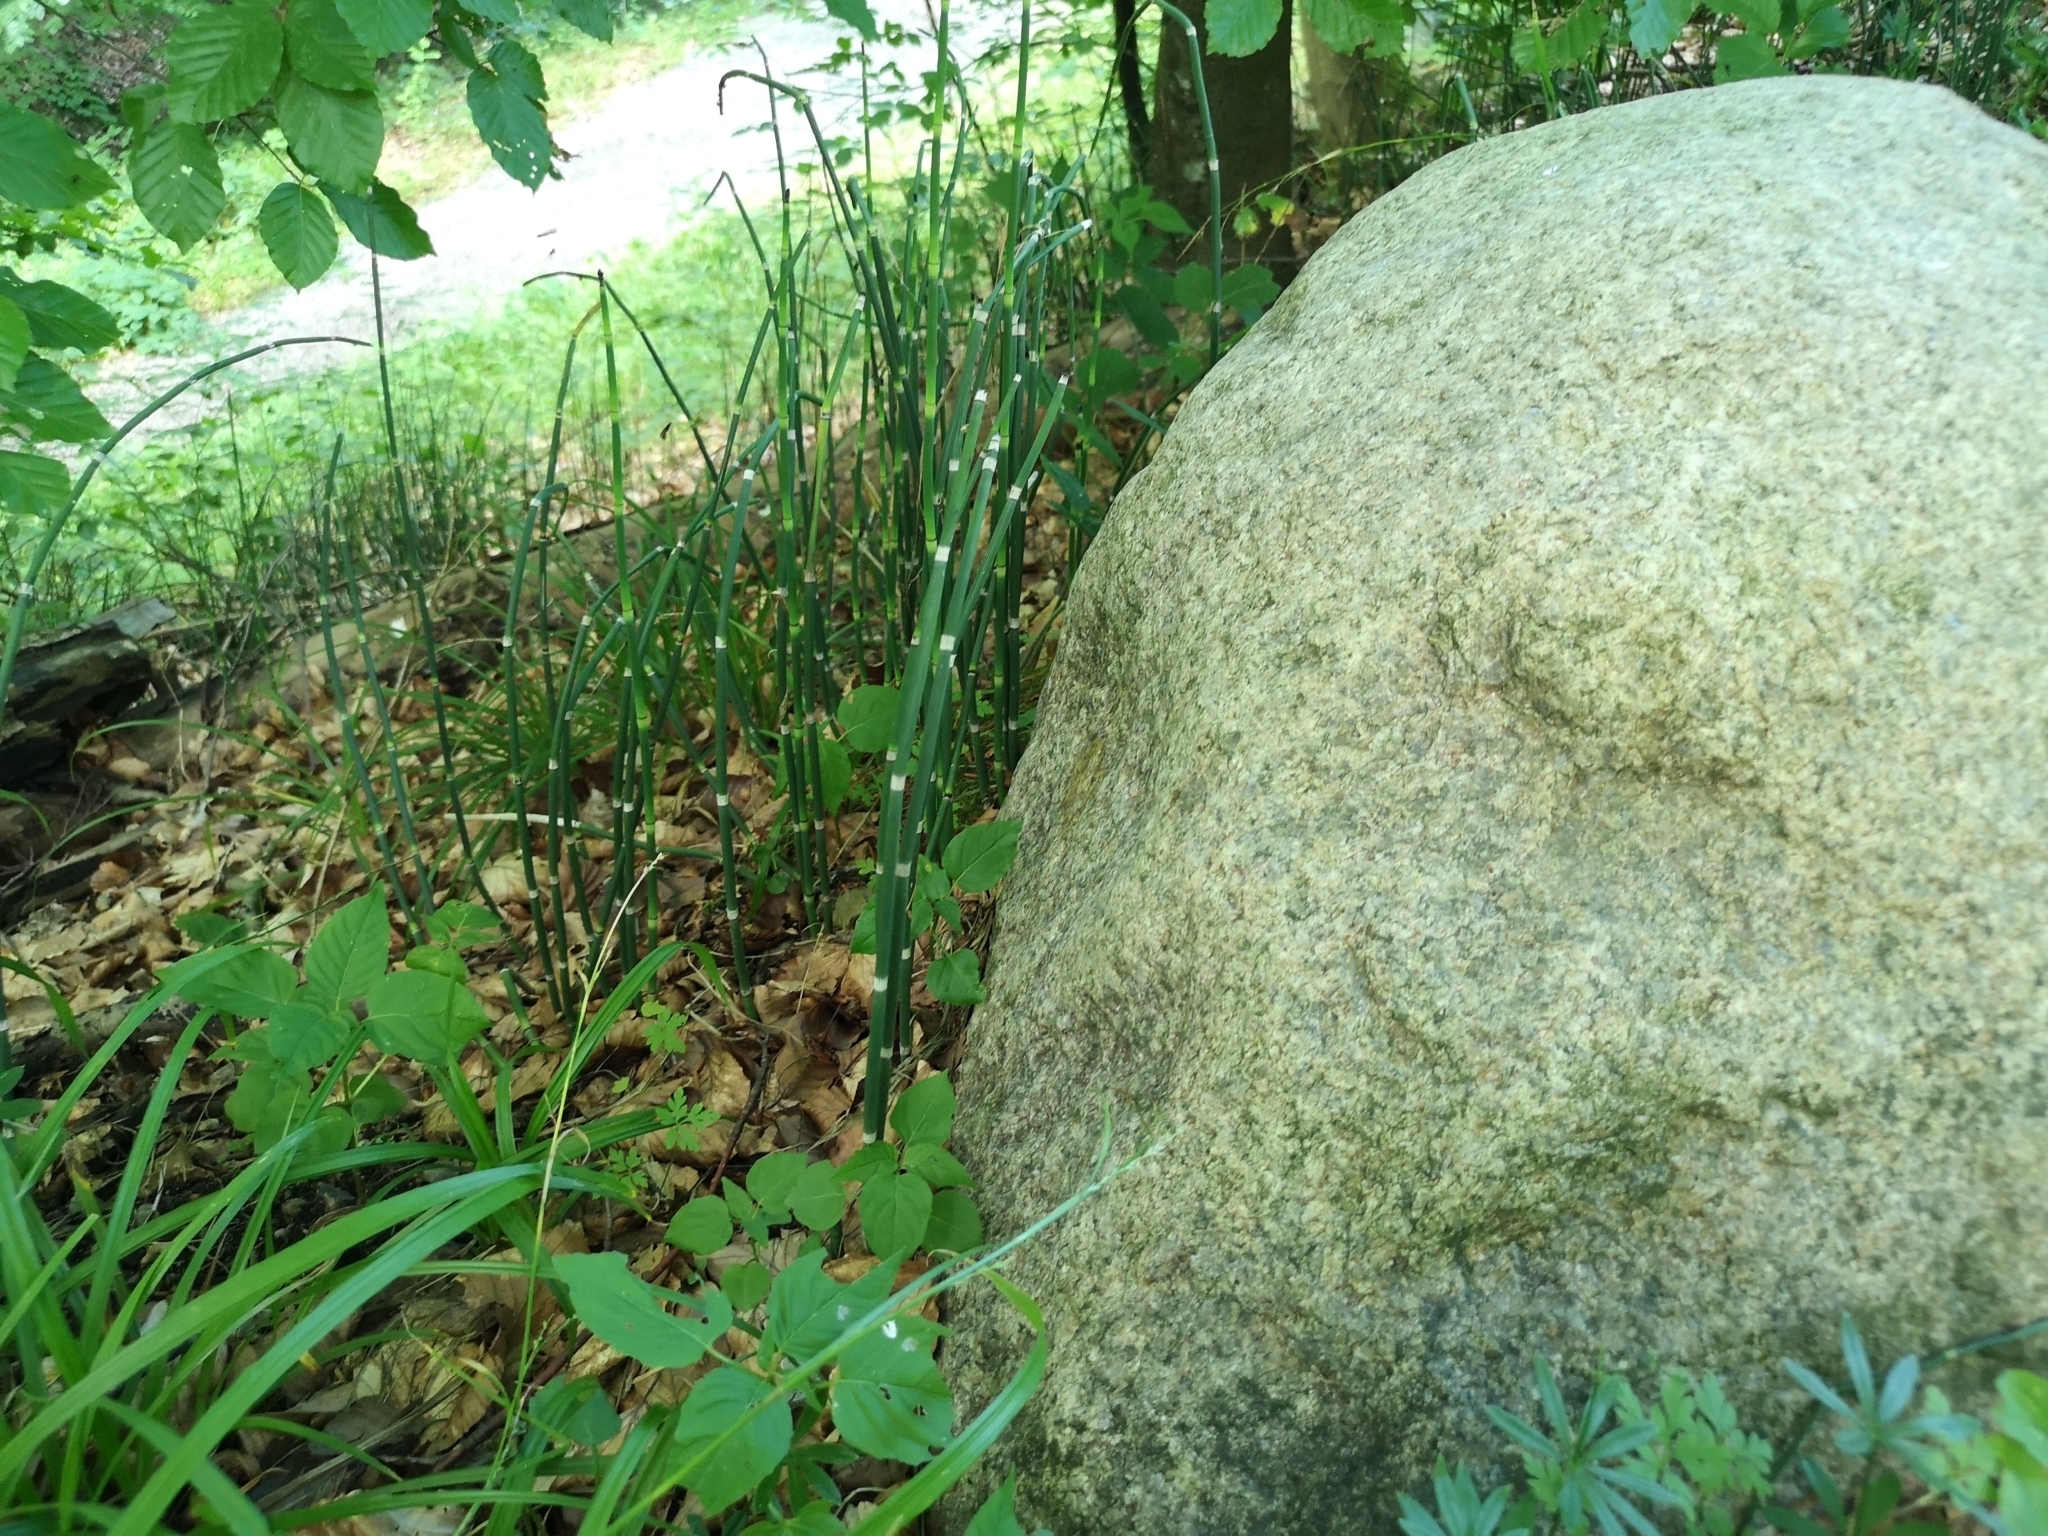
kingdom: Plantae
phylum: Tracheophyta
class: Polypodiopsida
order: Equisetales
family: Equisetaceae
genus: Equisetum
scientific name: Equisetum hyemale
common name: Rough horsetail
